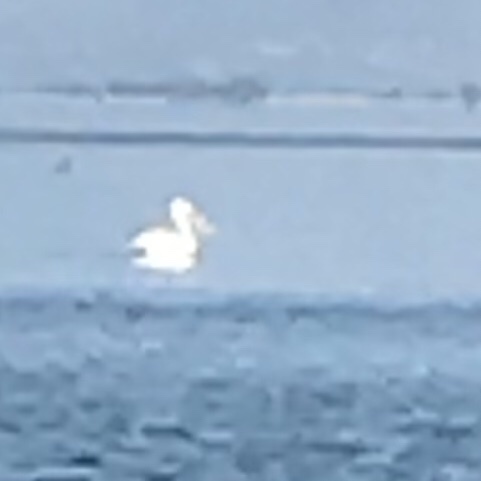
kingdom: Animalia
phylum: Chordata
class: Aves
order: Pelecaniformes
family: Pelecanidae
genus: Pelecanus
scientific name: Pelecanus crispus
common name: Dalmatian pelican
